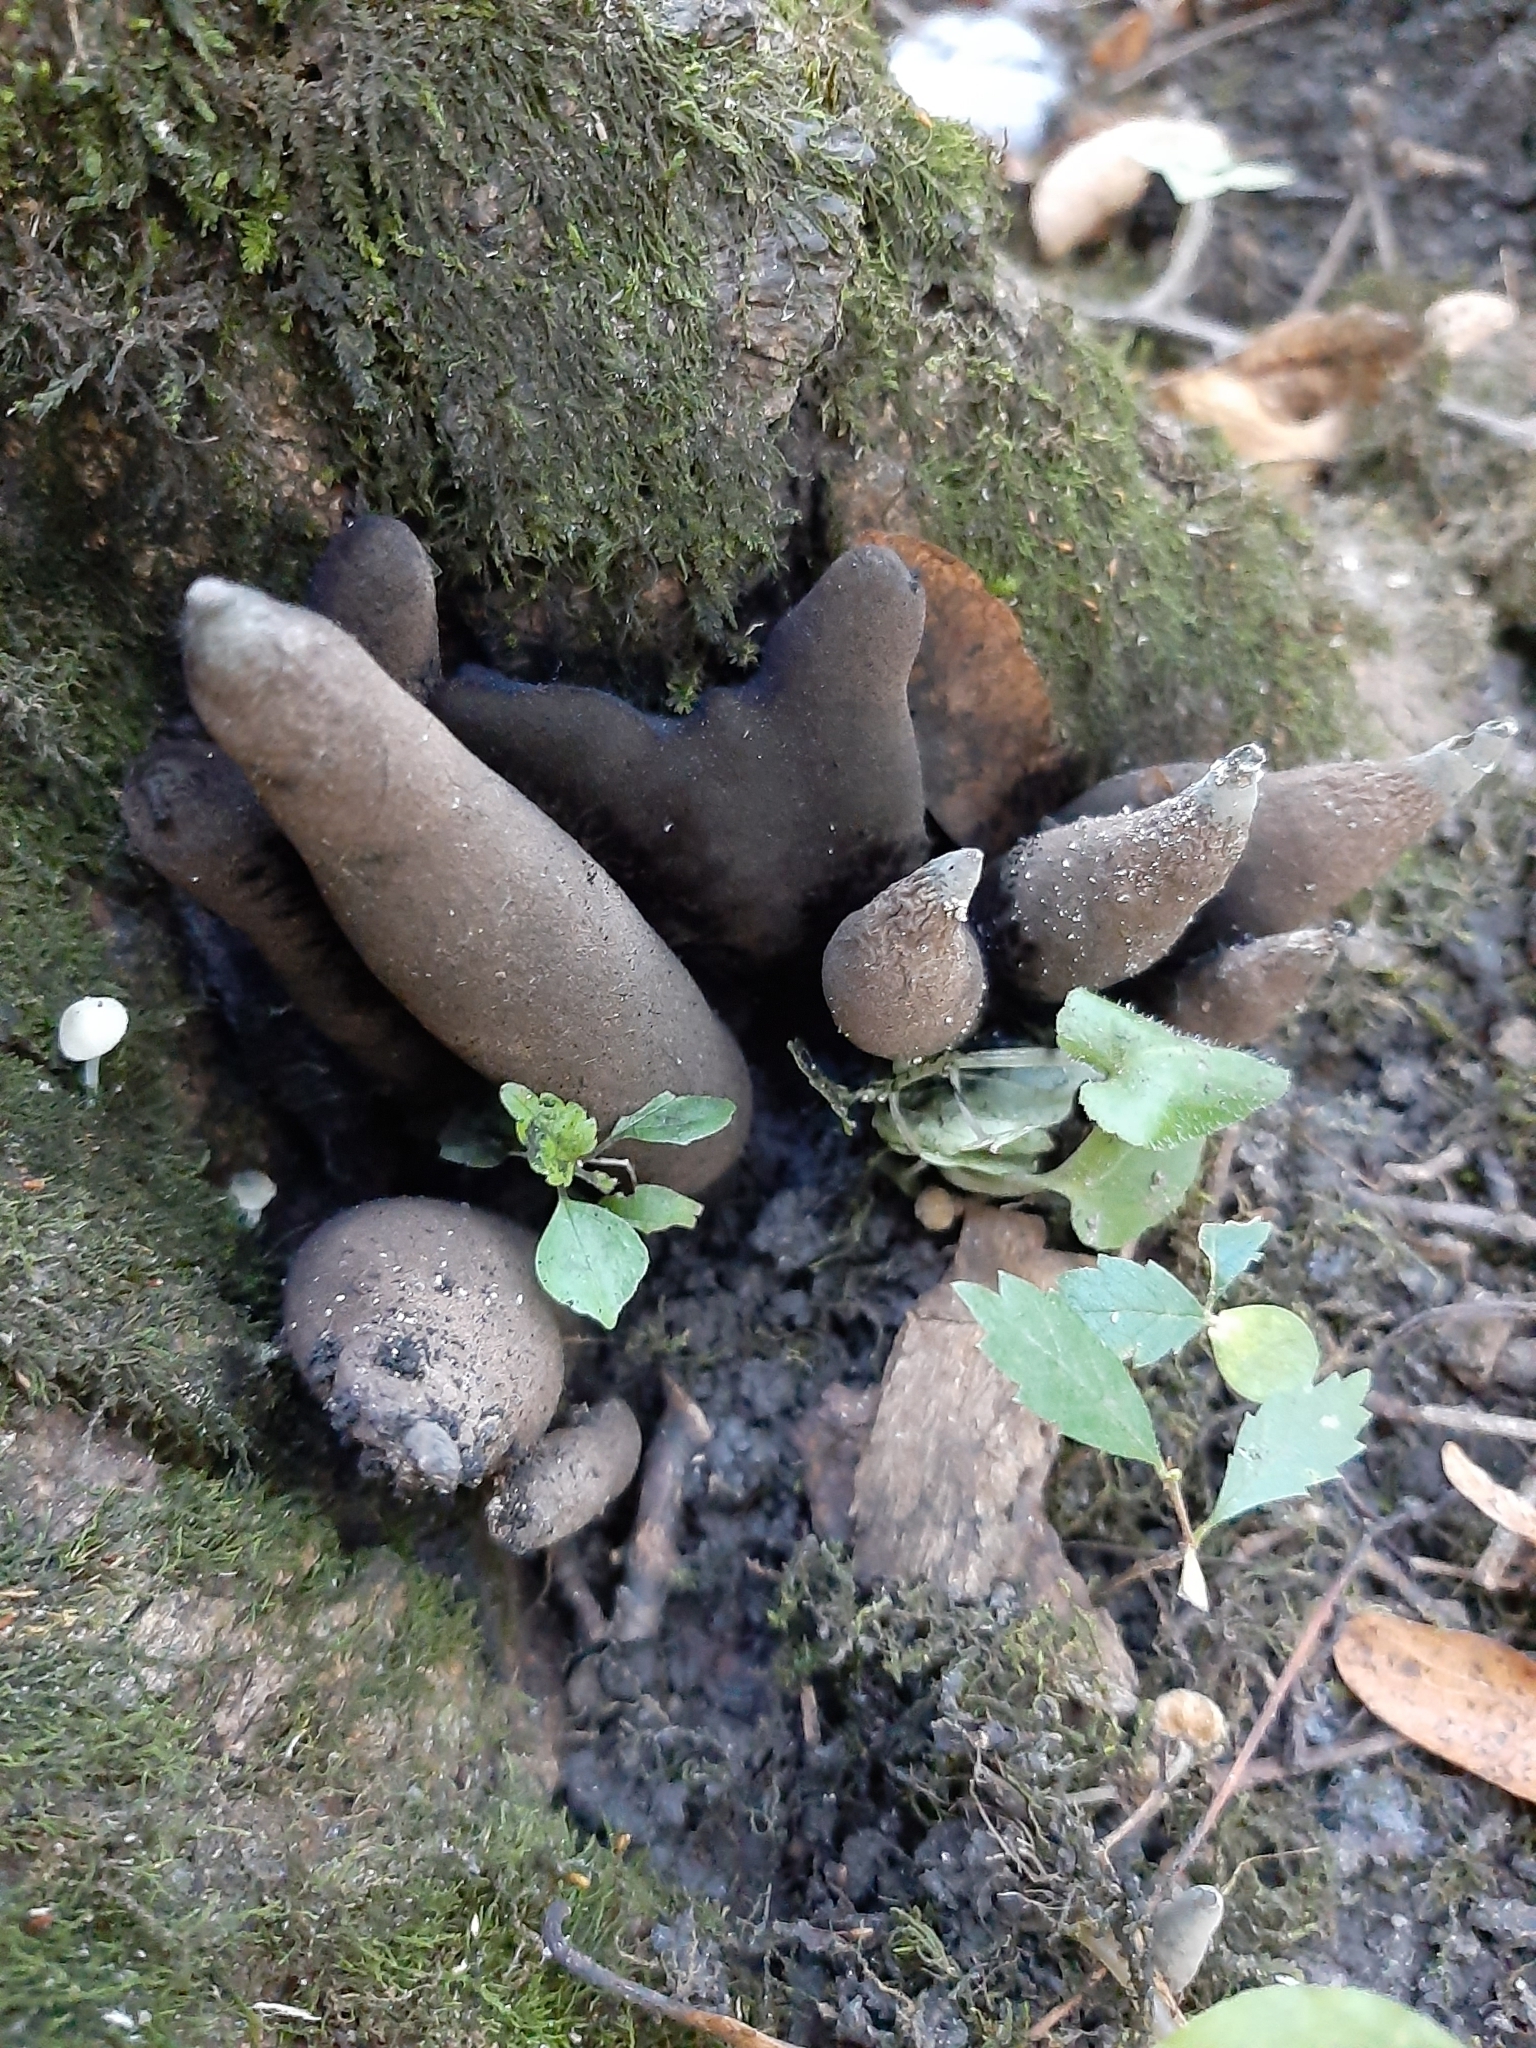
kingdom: Fungi
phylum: Ascomycota
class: Sordariomycetes
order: Xylariales
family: Xylariaceae
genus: Xylaria
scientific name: Xylaria polymorpha
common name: Dead man's fingers
